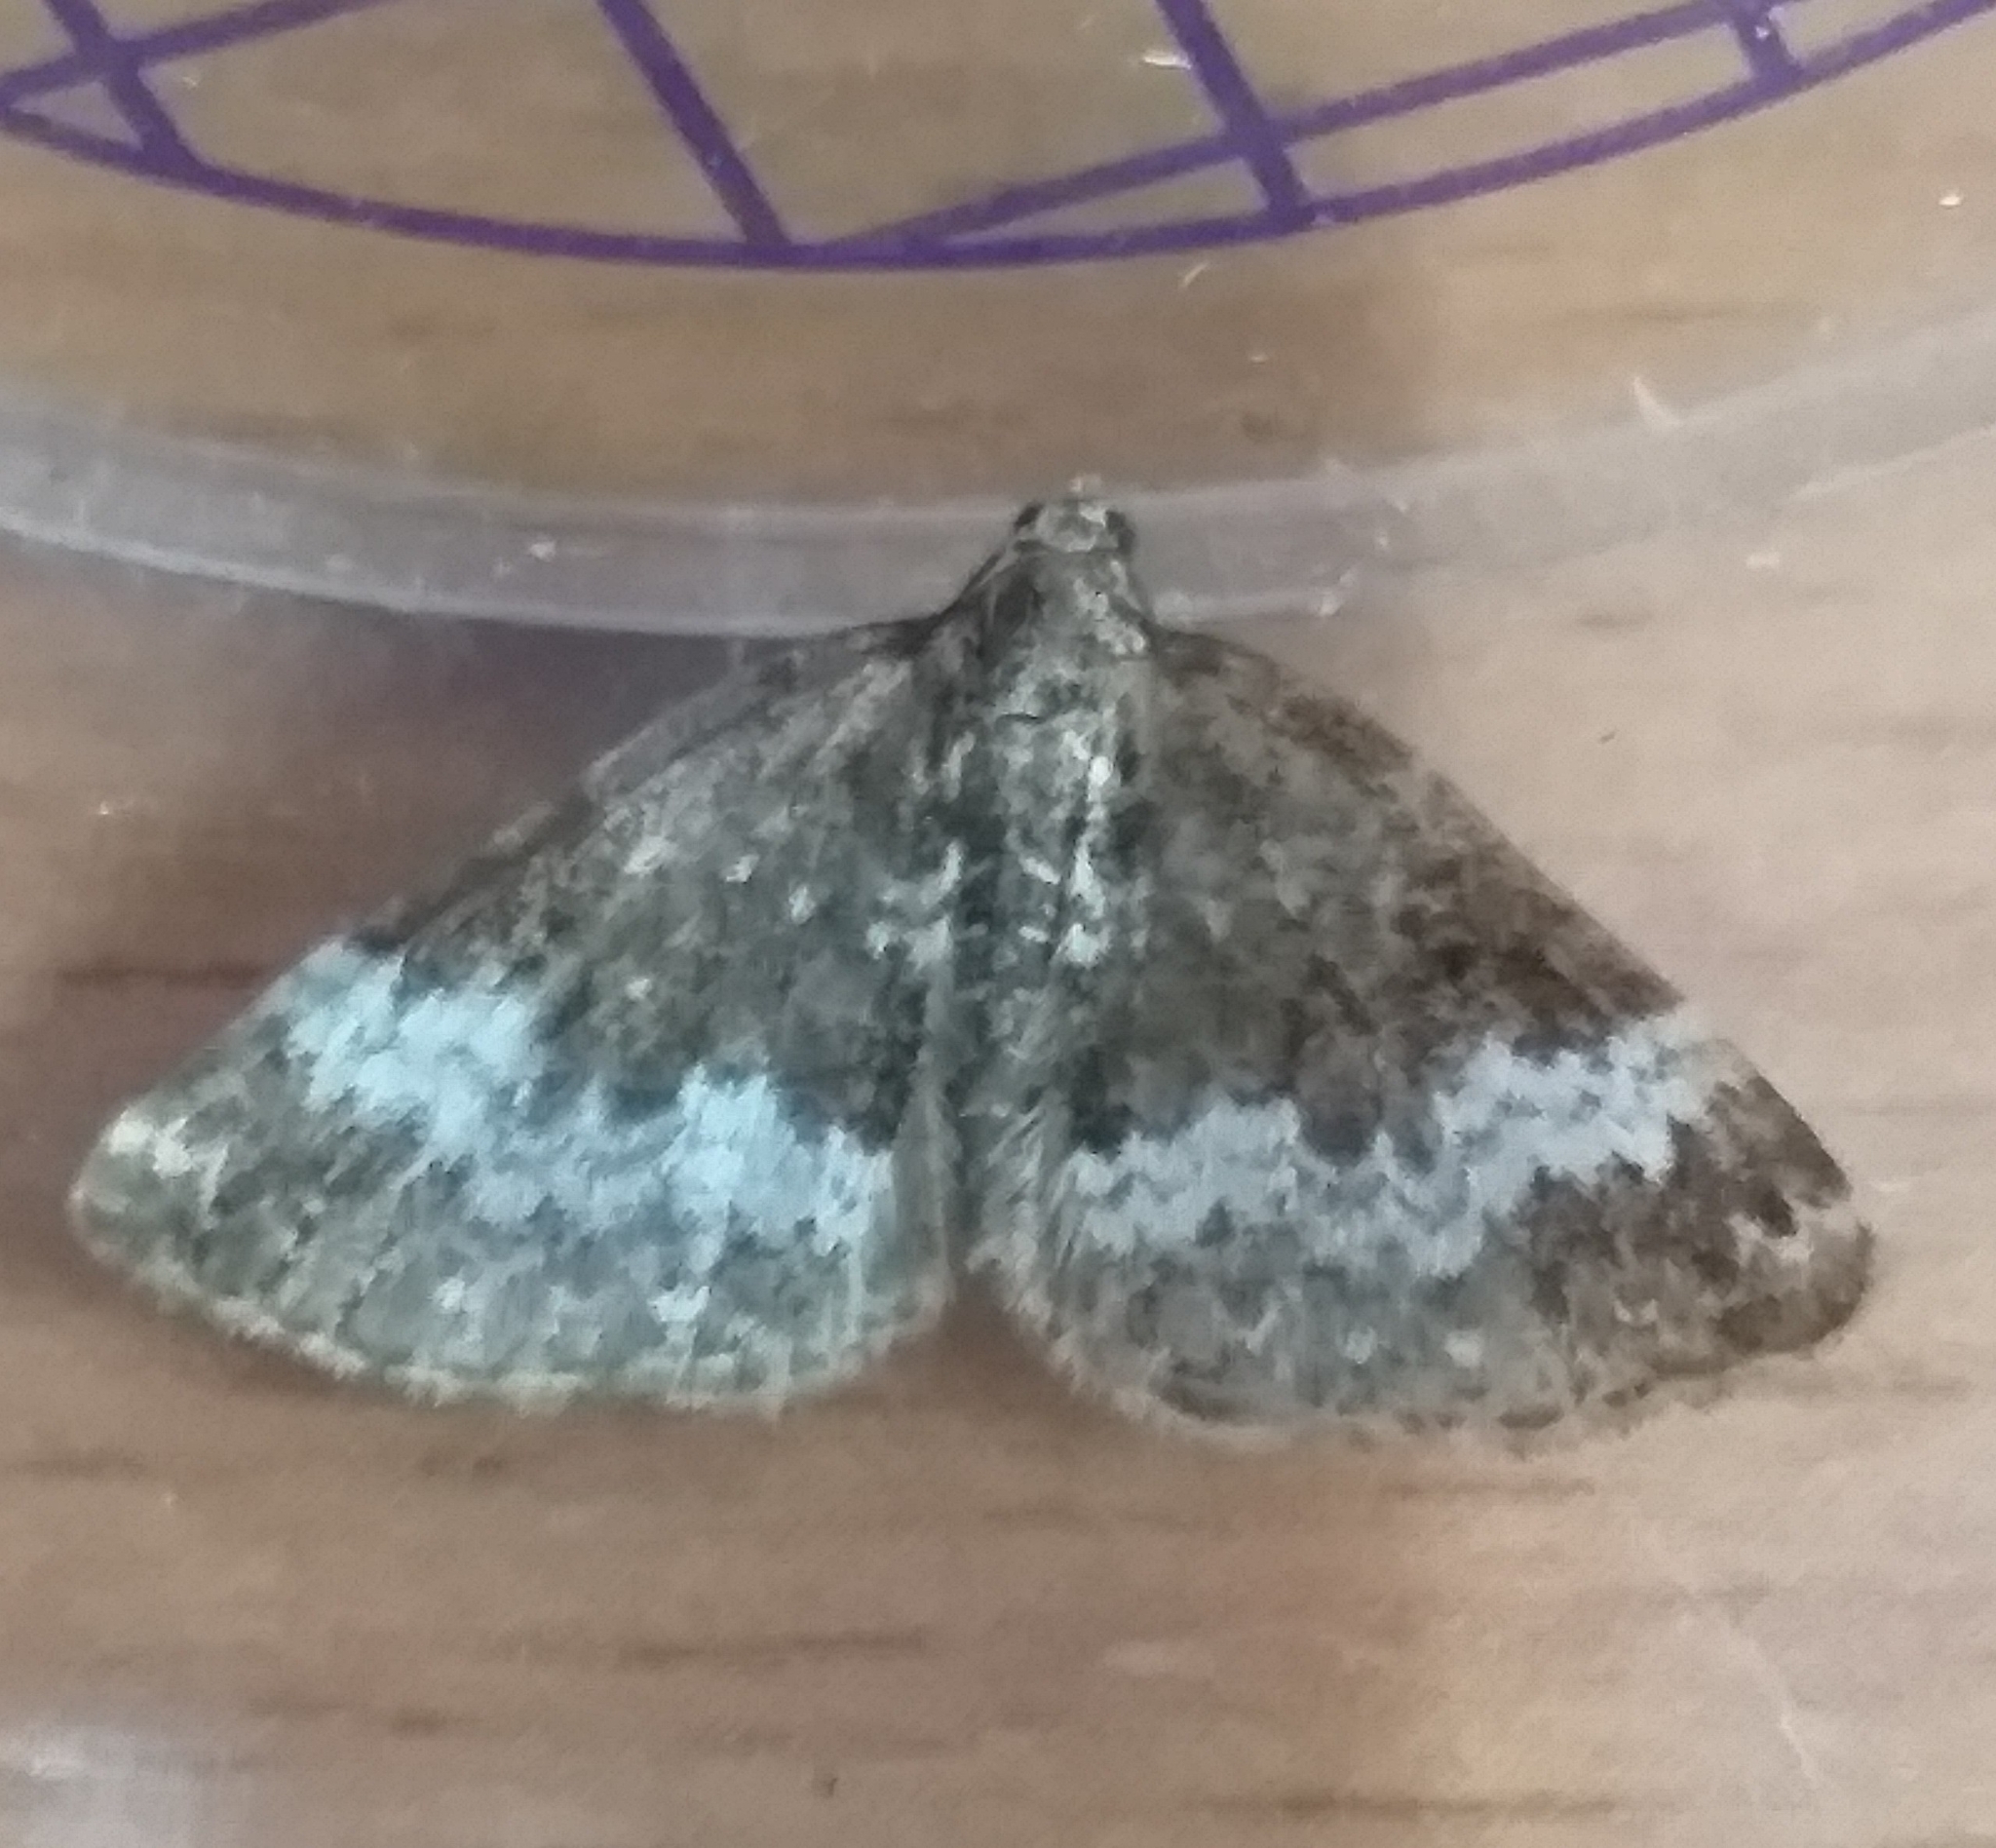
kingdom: Animalia
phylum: Arthropoda
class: Insecta
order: Lepidoptera
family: Geometridae
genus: Perizoma
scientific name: Perizoma alchemillata
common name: Small rivulet
